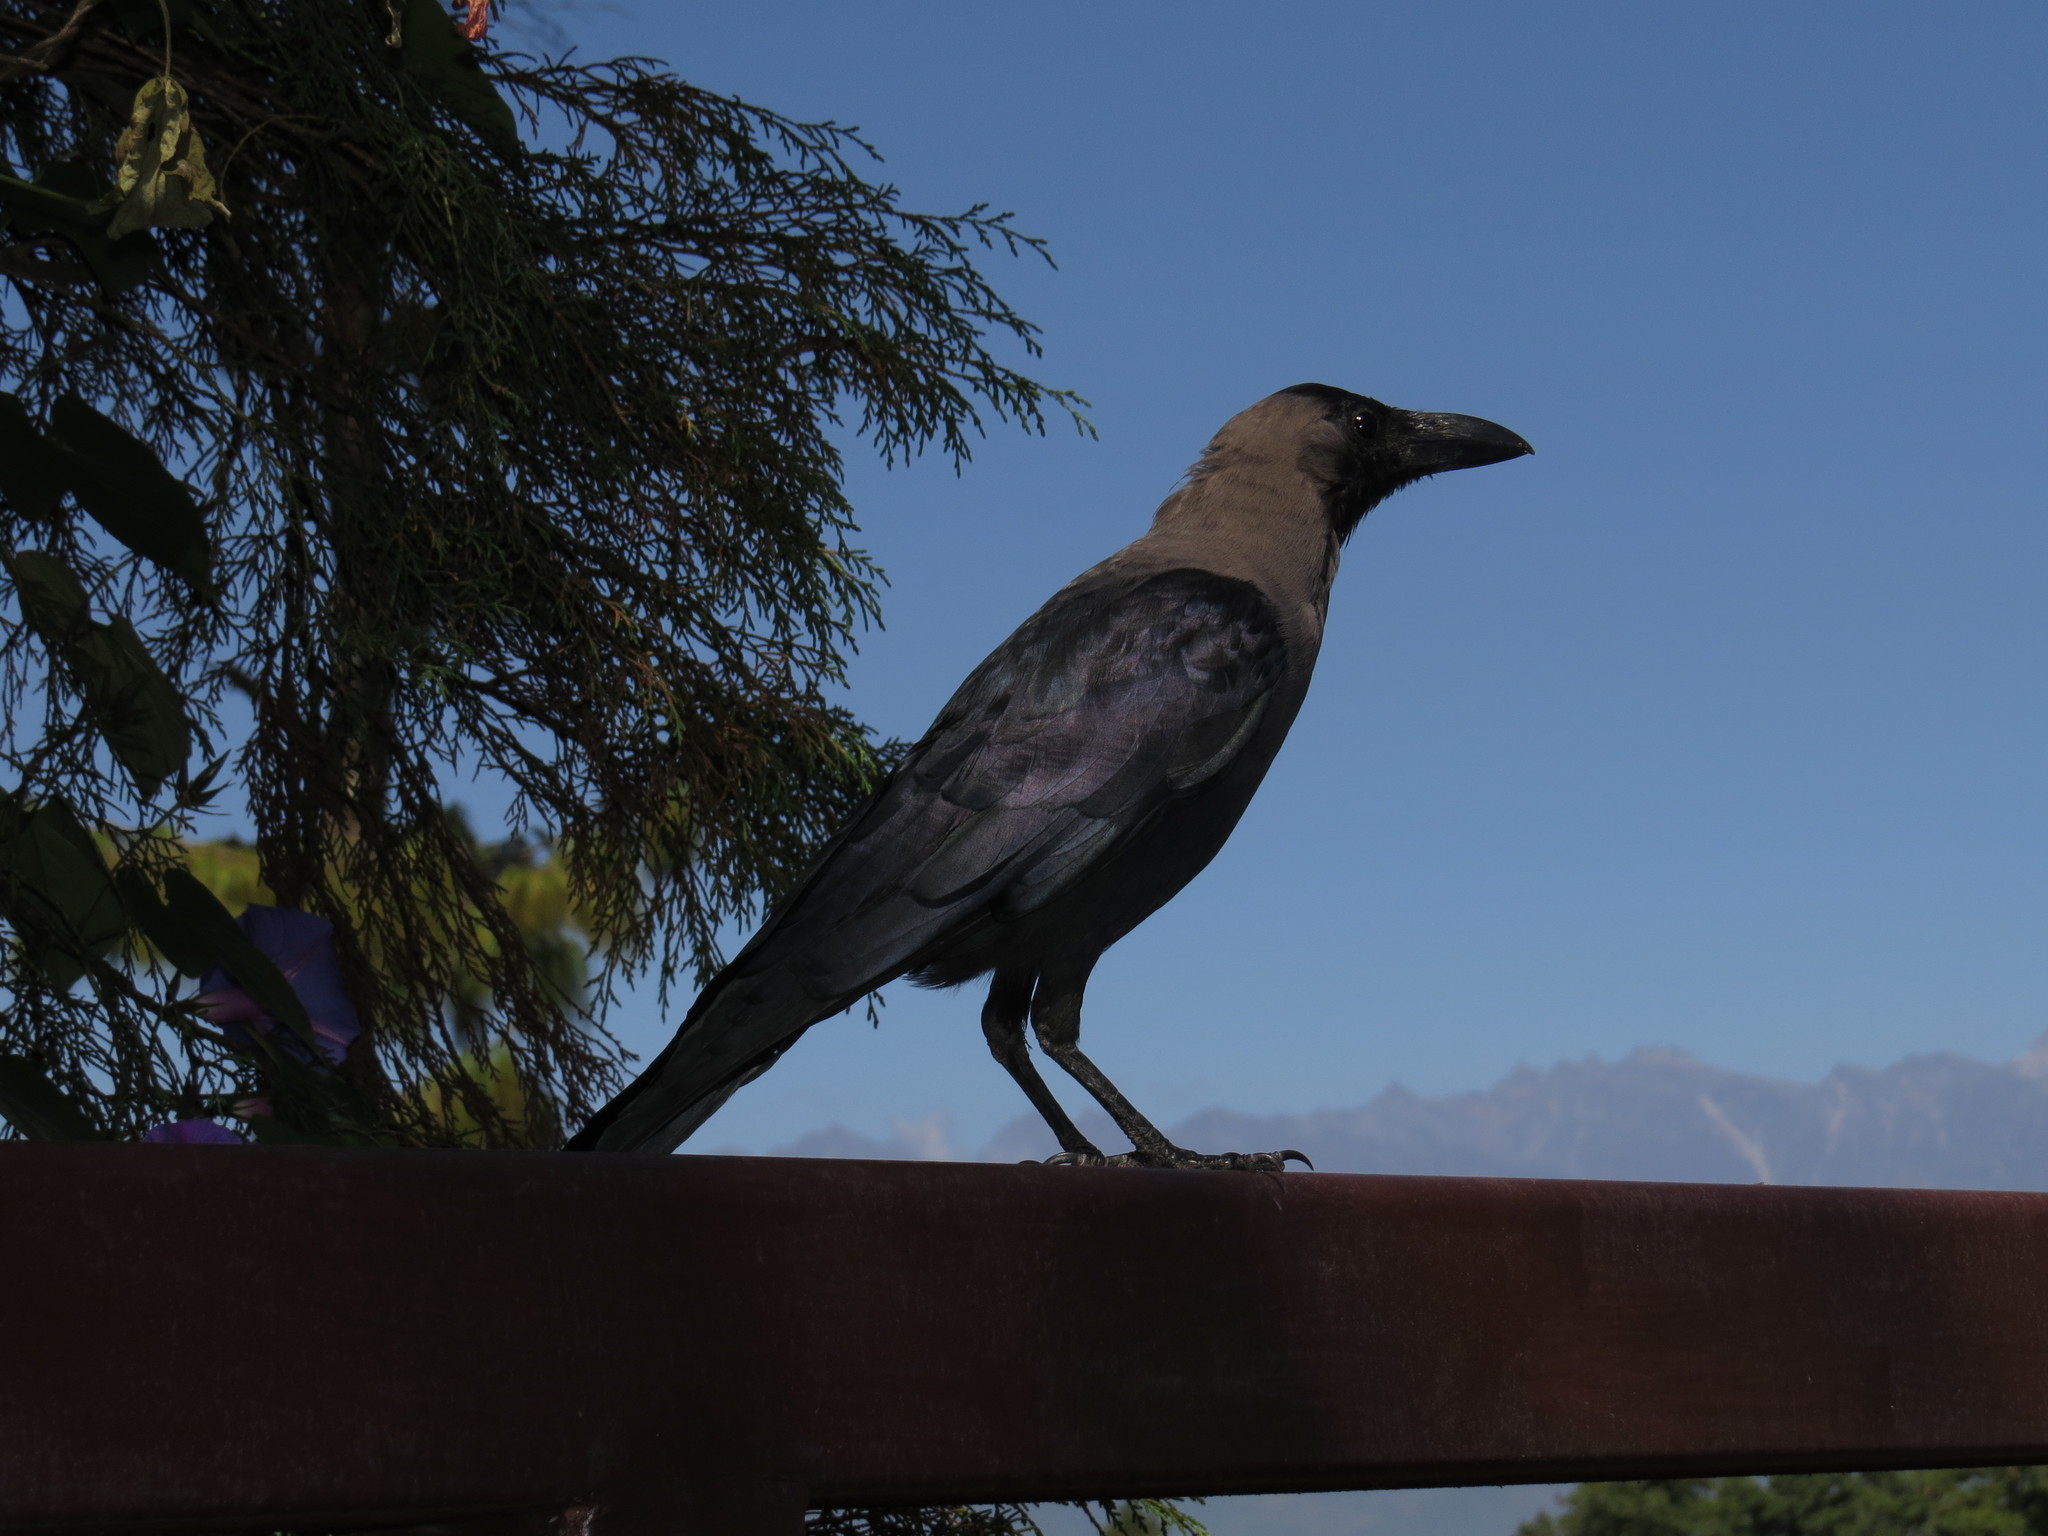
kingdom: Animalia
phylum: Chordata
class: Aves
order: Passeriformes
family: Corvidae
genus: Corvus
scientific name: Corvus splendens
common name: House crow
